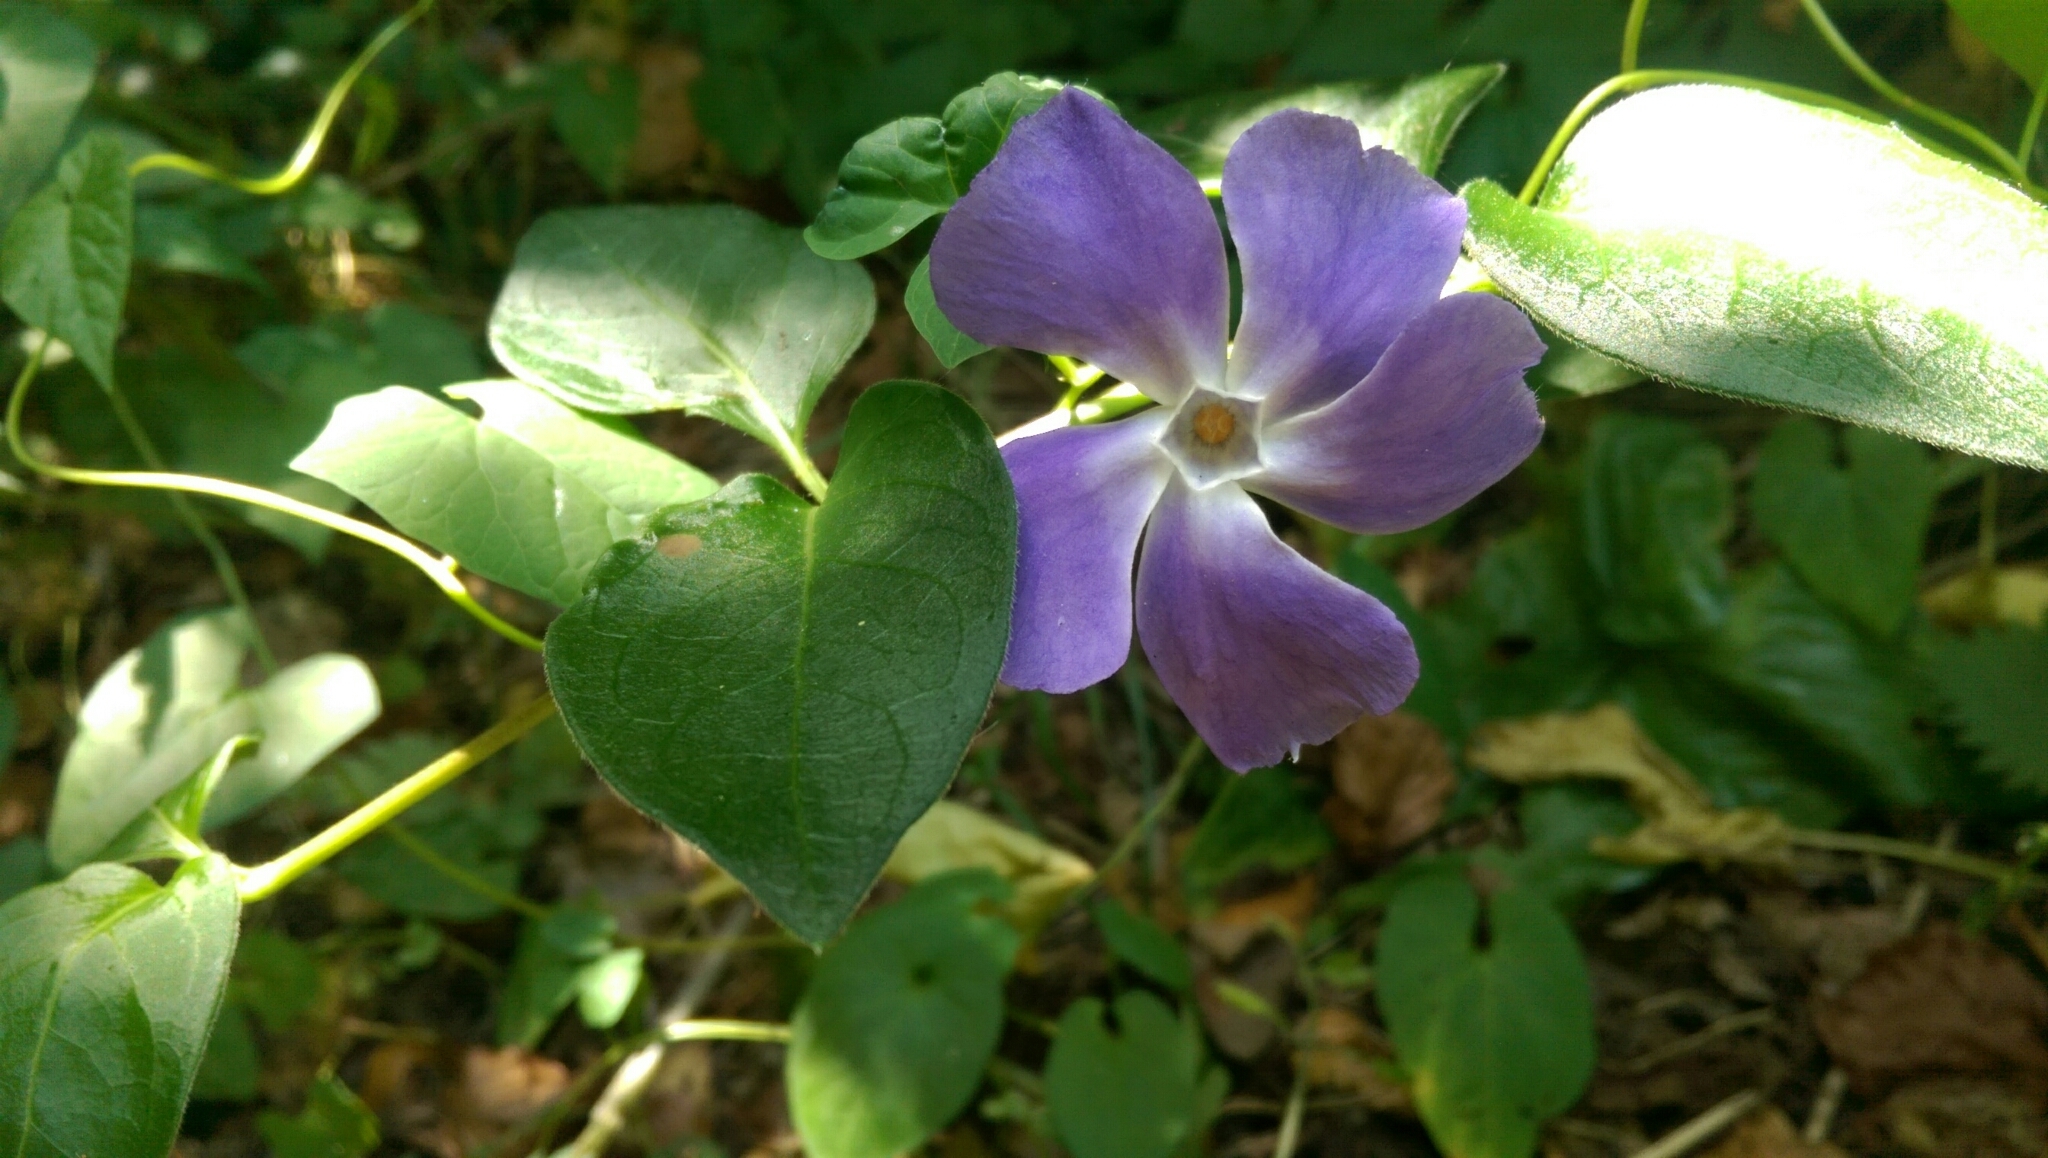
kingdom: Plantae
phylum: Tracheophyta
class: Magnoliopsida
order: Gentianales
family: Apocynaceae
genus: Vinca
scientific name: Vinca major
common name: Greater periwinkle
